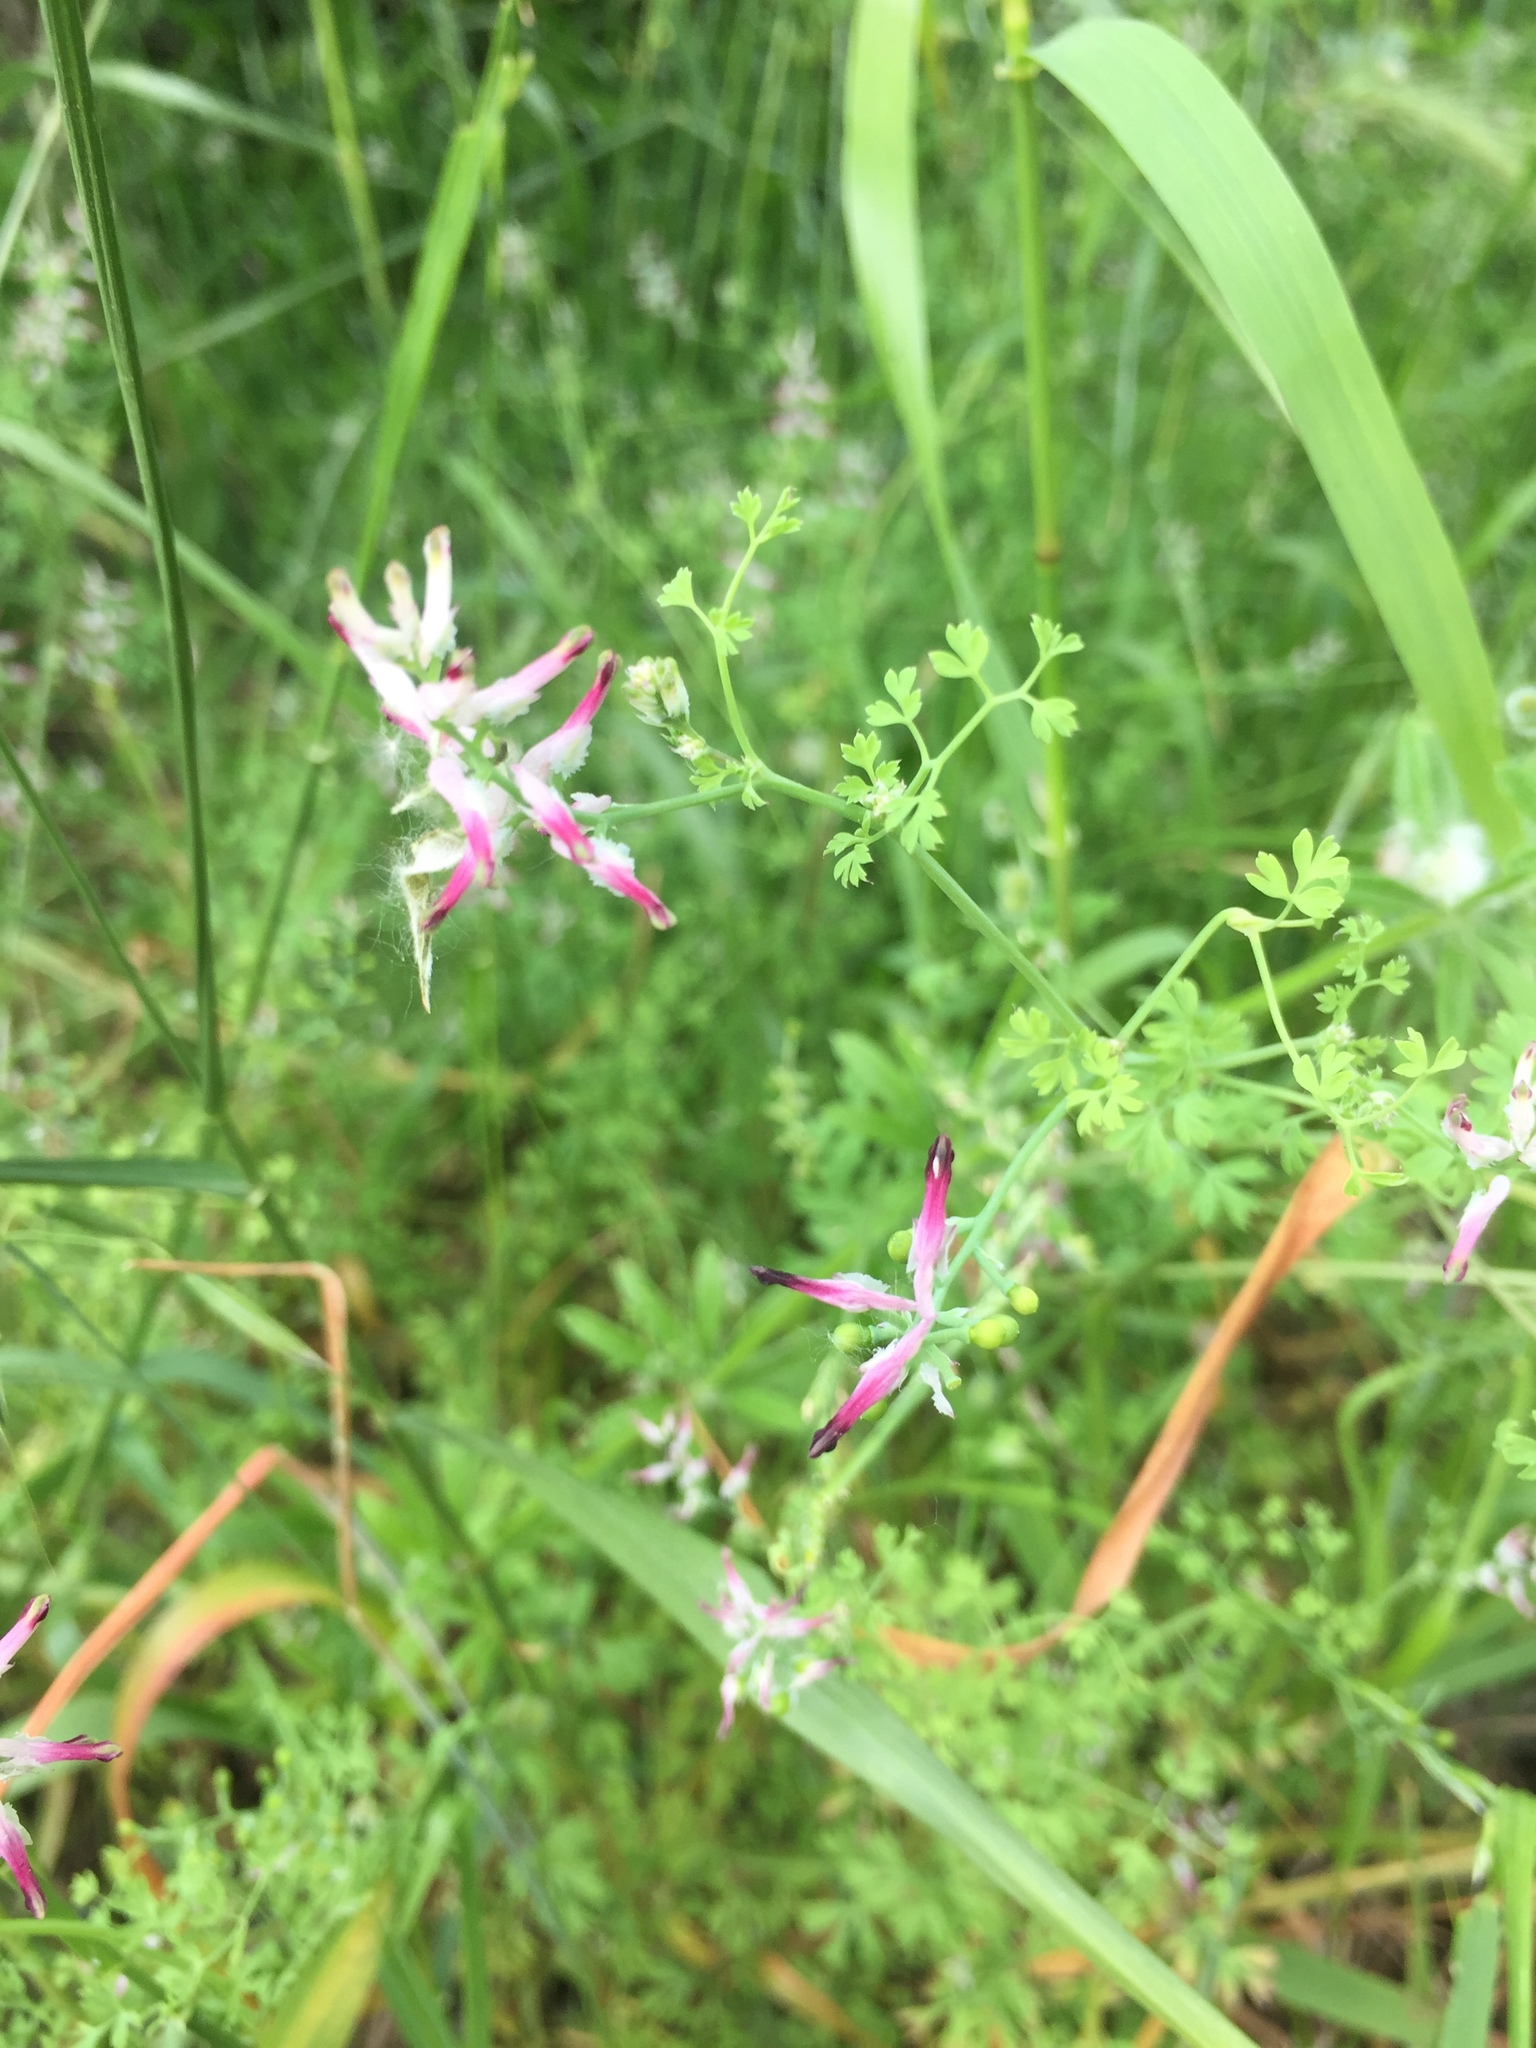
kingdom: Plantae
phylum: Tracheophyta
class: Magnoliopsida
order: Ranunculales
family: Papaveraceae
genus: Fumaria
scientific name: Fumaria muralis
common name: Common ramping-fumitory
